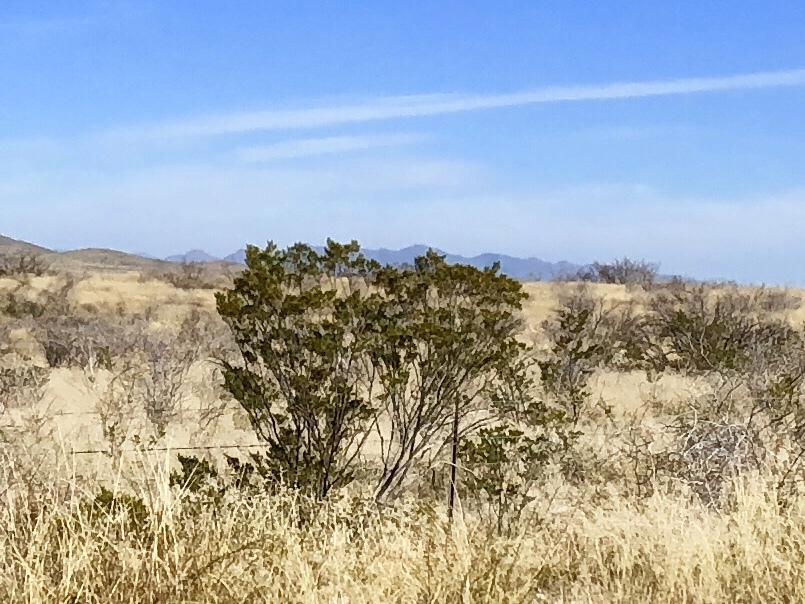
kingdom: Plantae
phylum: Tracheophyta
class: Magnoliopsida
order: Zygophyllales
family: Zygophyllaceae
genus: Larrea
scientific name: Larrea tridentata
